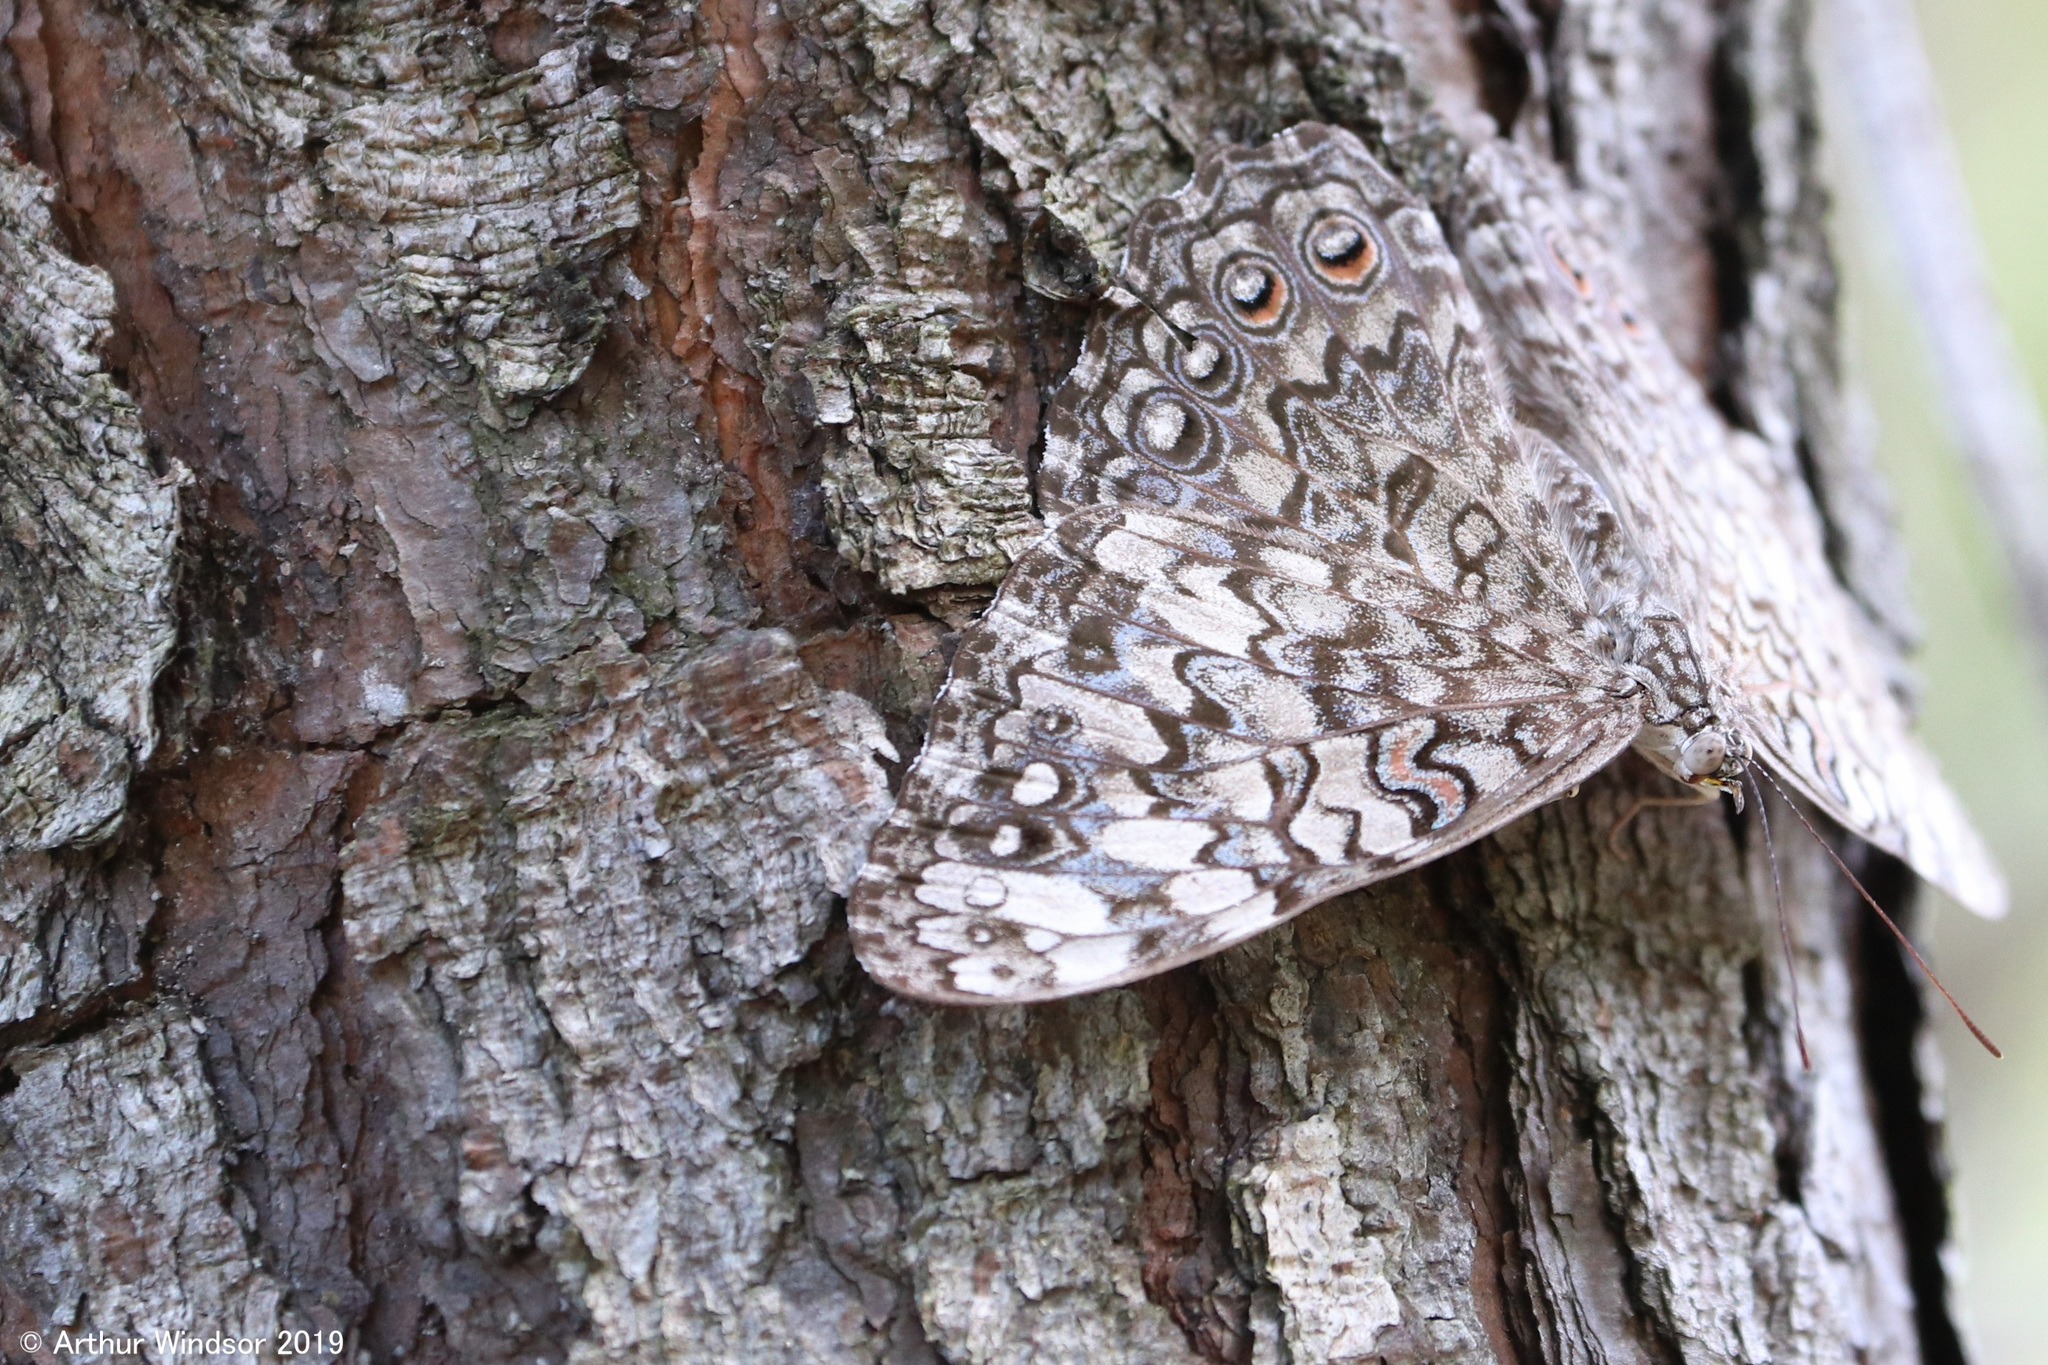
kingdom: Animalia
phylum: Arthropoda
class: Insecta
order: Lepidoptera
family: Nymphalidae
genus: Hamadryas
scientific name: Hamadryas februa
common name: Gray cracker
